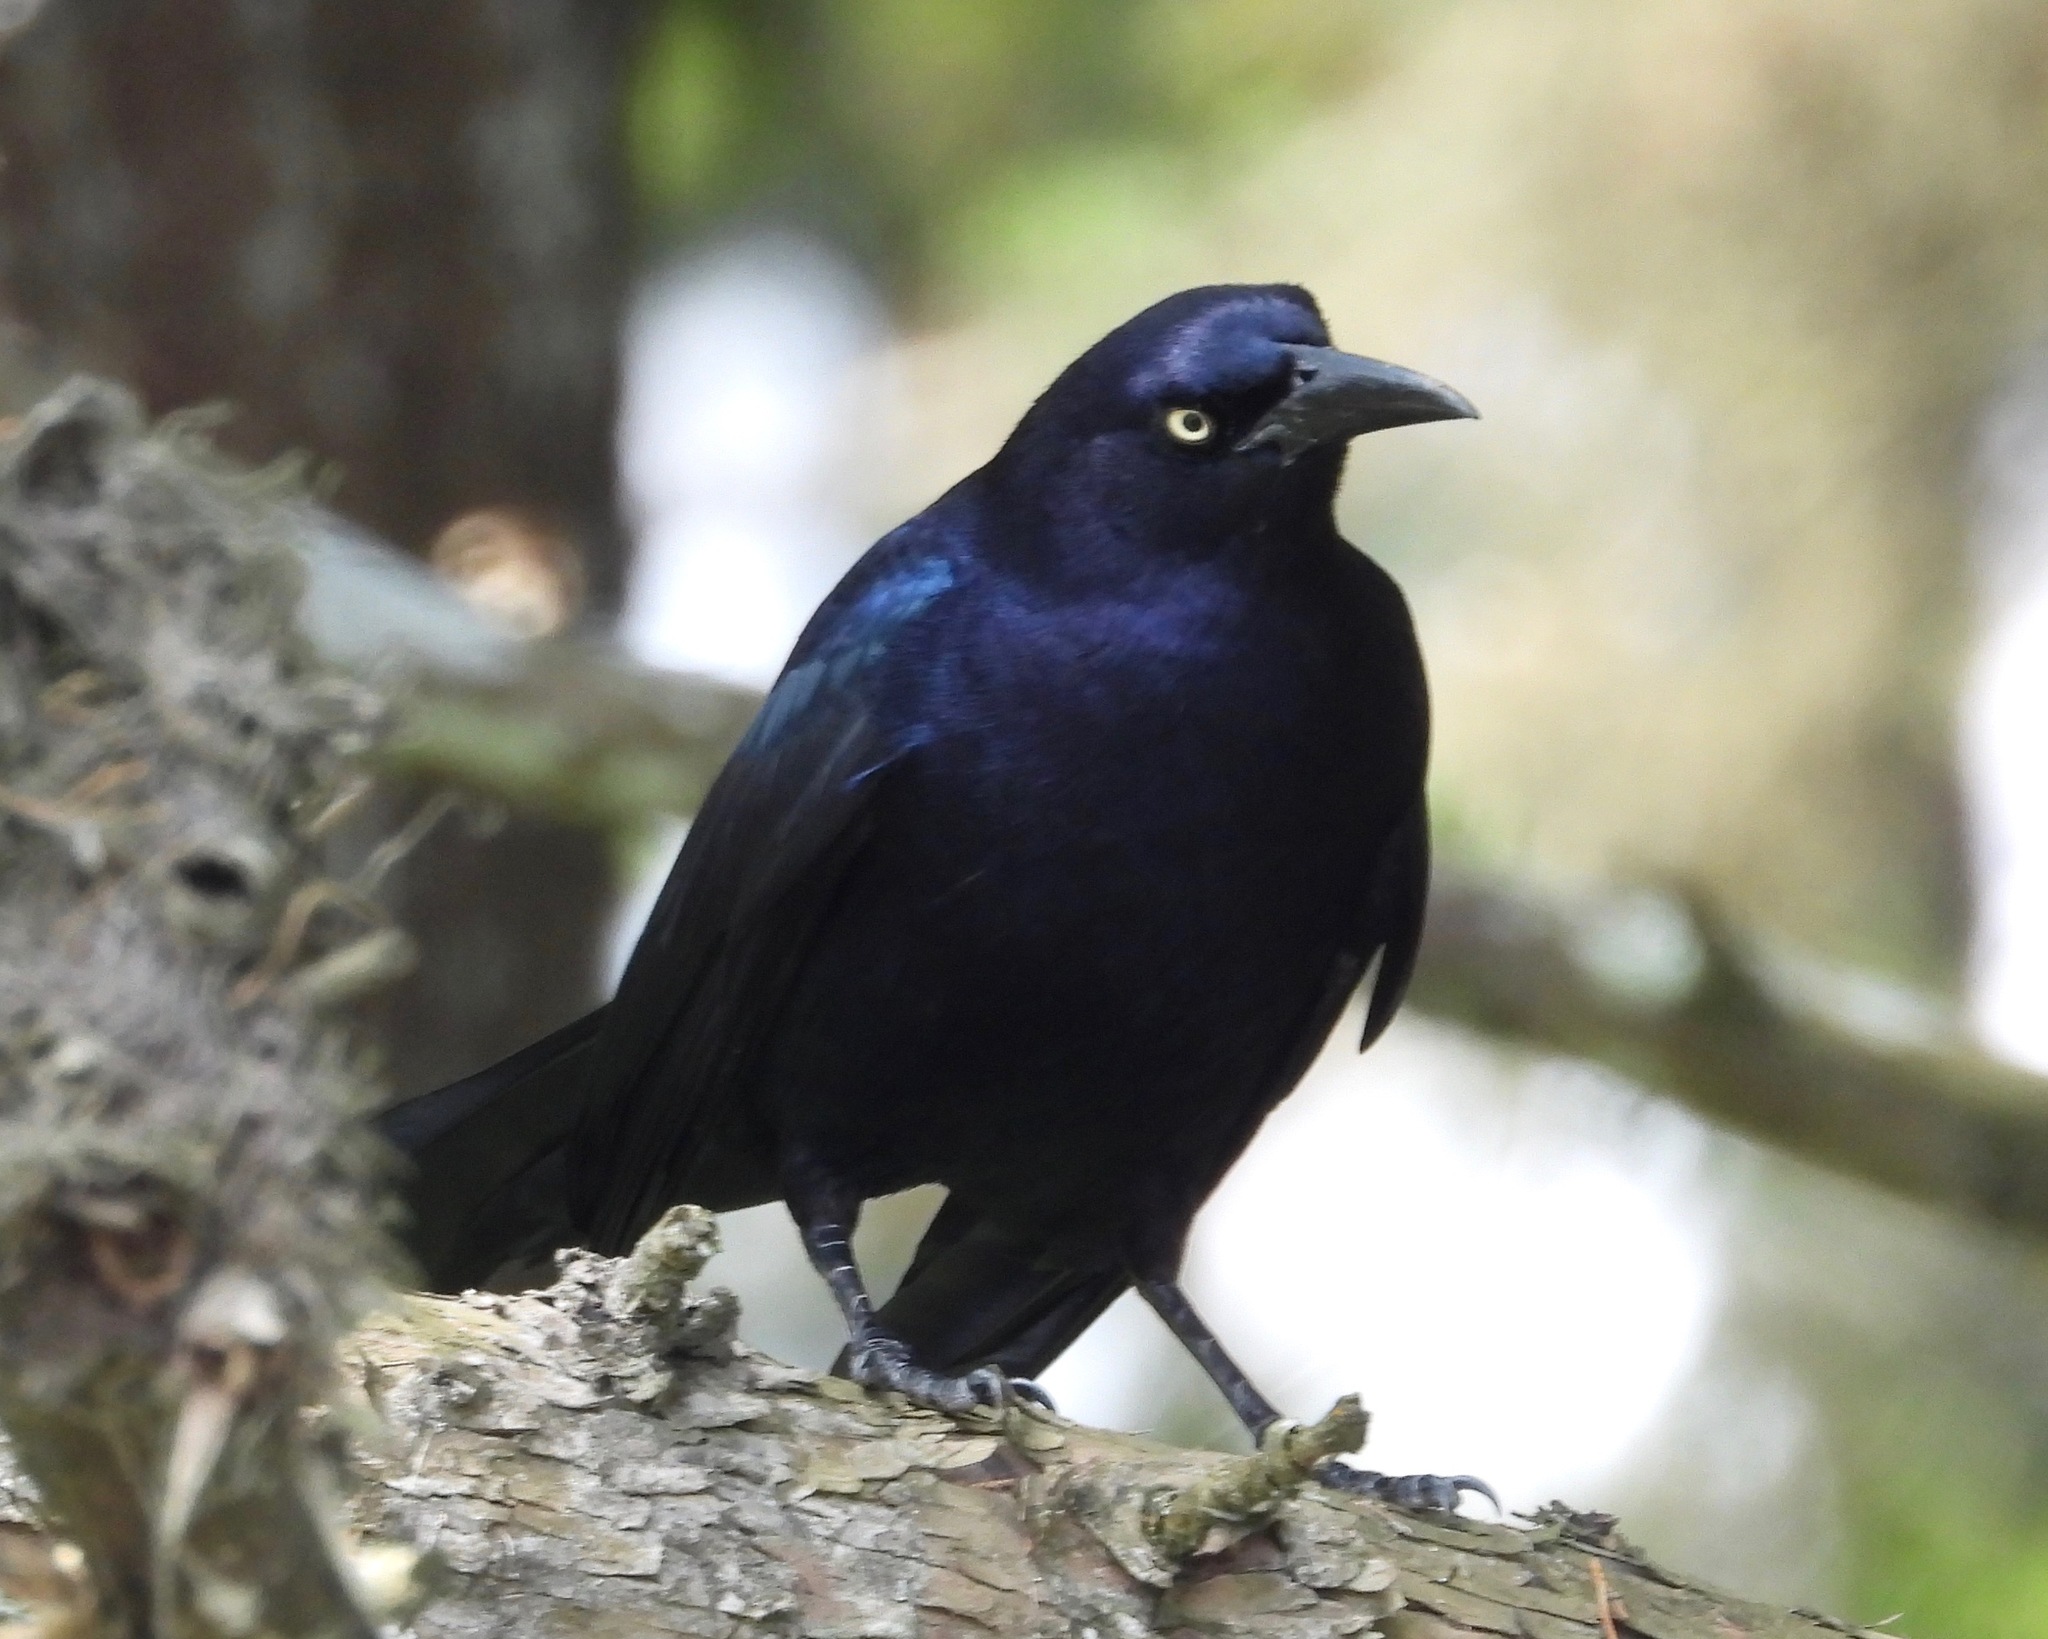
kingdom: Animalia
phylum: Chordata
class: Aves
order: Passeriformes
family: Icteridae
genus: Quiscalus
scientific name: Quiscalus mexicanus
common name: Great-tailed grackle
